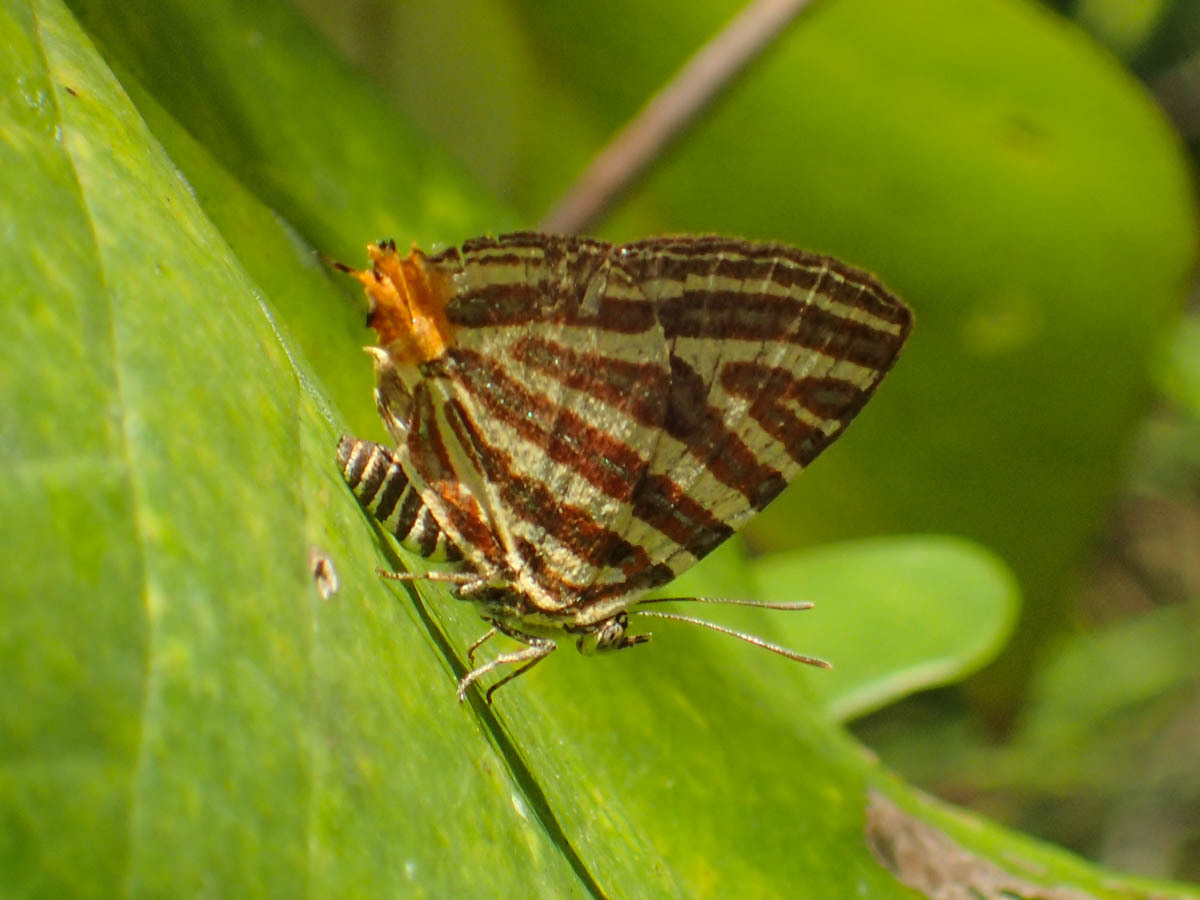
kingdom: Animalia
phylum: Arthropoda
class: Insecta
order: Lepidoptera
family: Lycaenidae
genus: Cigaritis
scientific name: Cigaritis lohita
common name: Long-banded silverline
